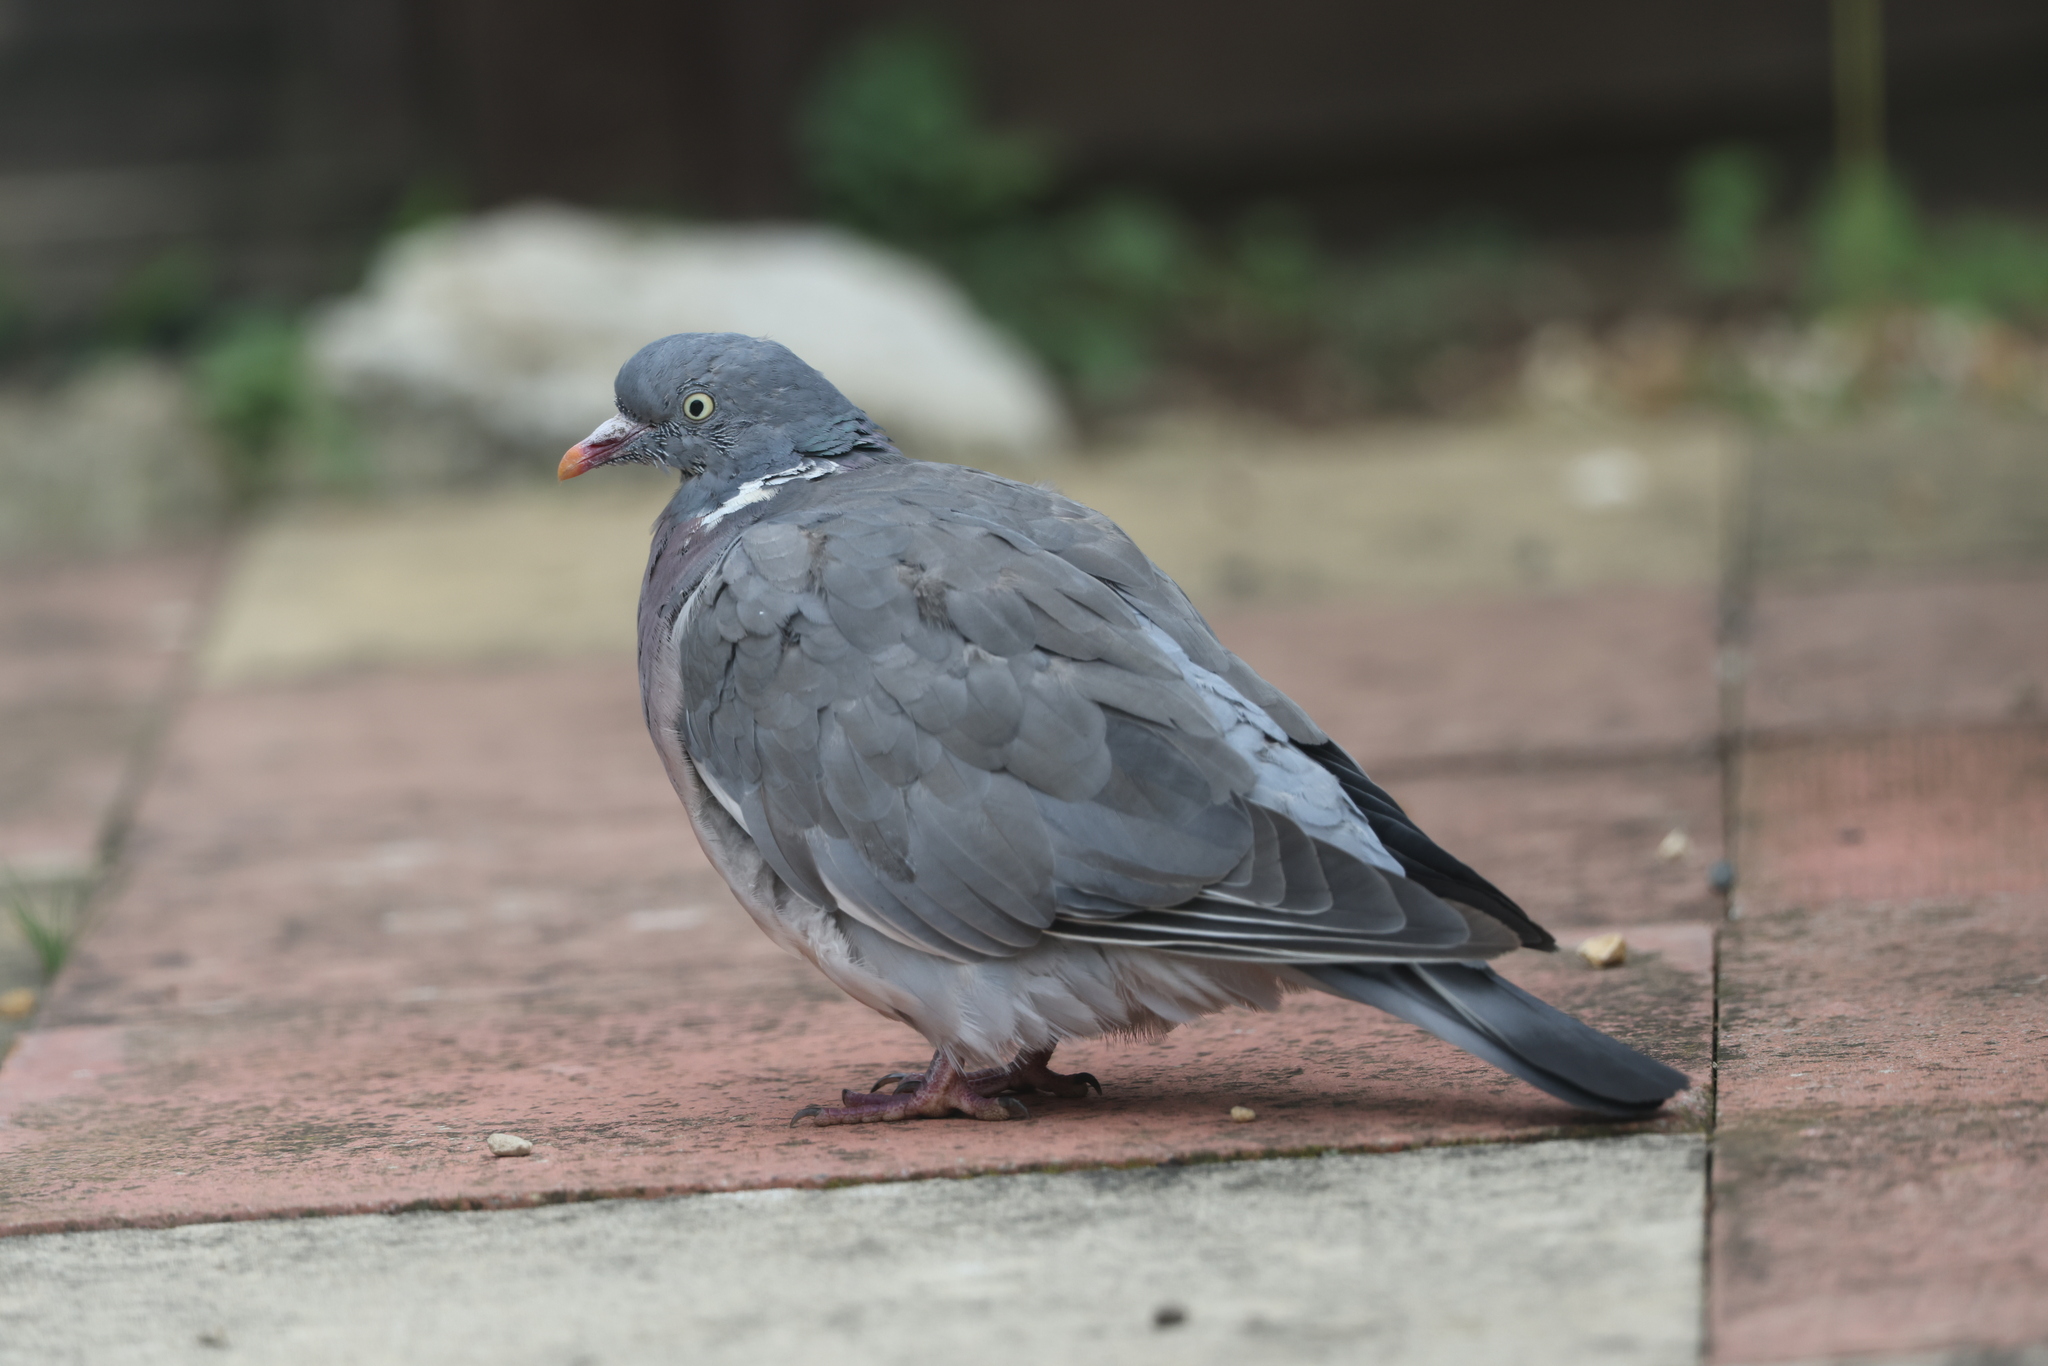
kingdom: Animalia
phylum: Chordata
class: Aves
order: Columbiformes
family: Columbidae
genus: Columba
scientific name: Columba palumbus
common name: Common wood pigeon
